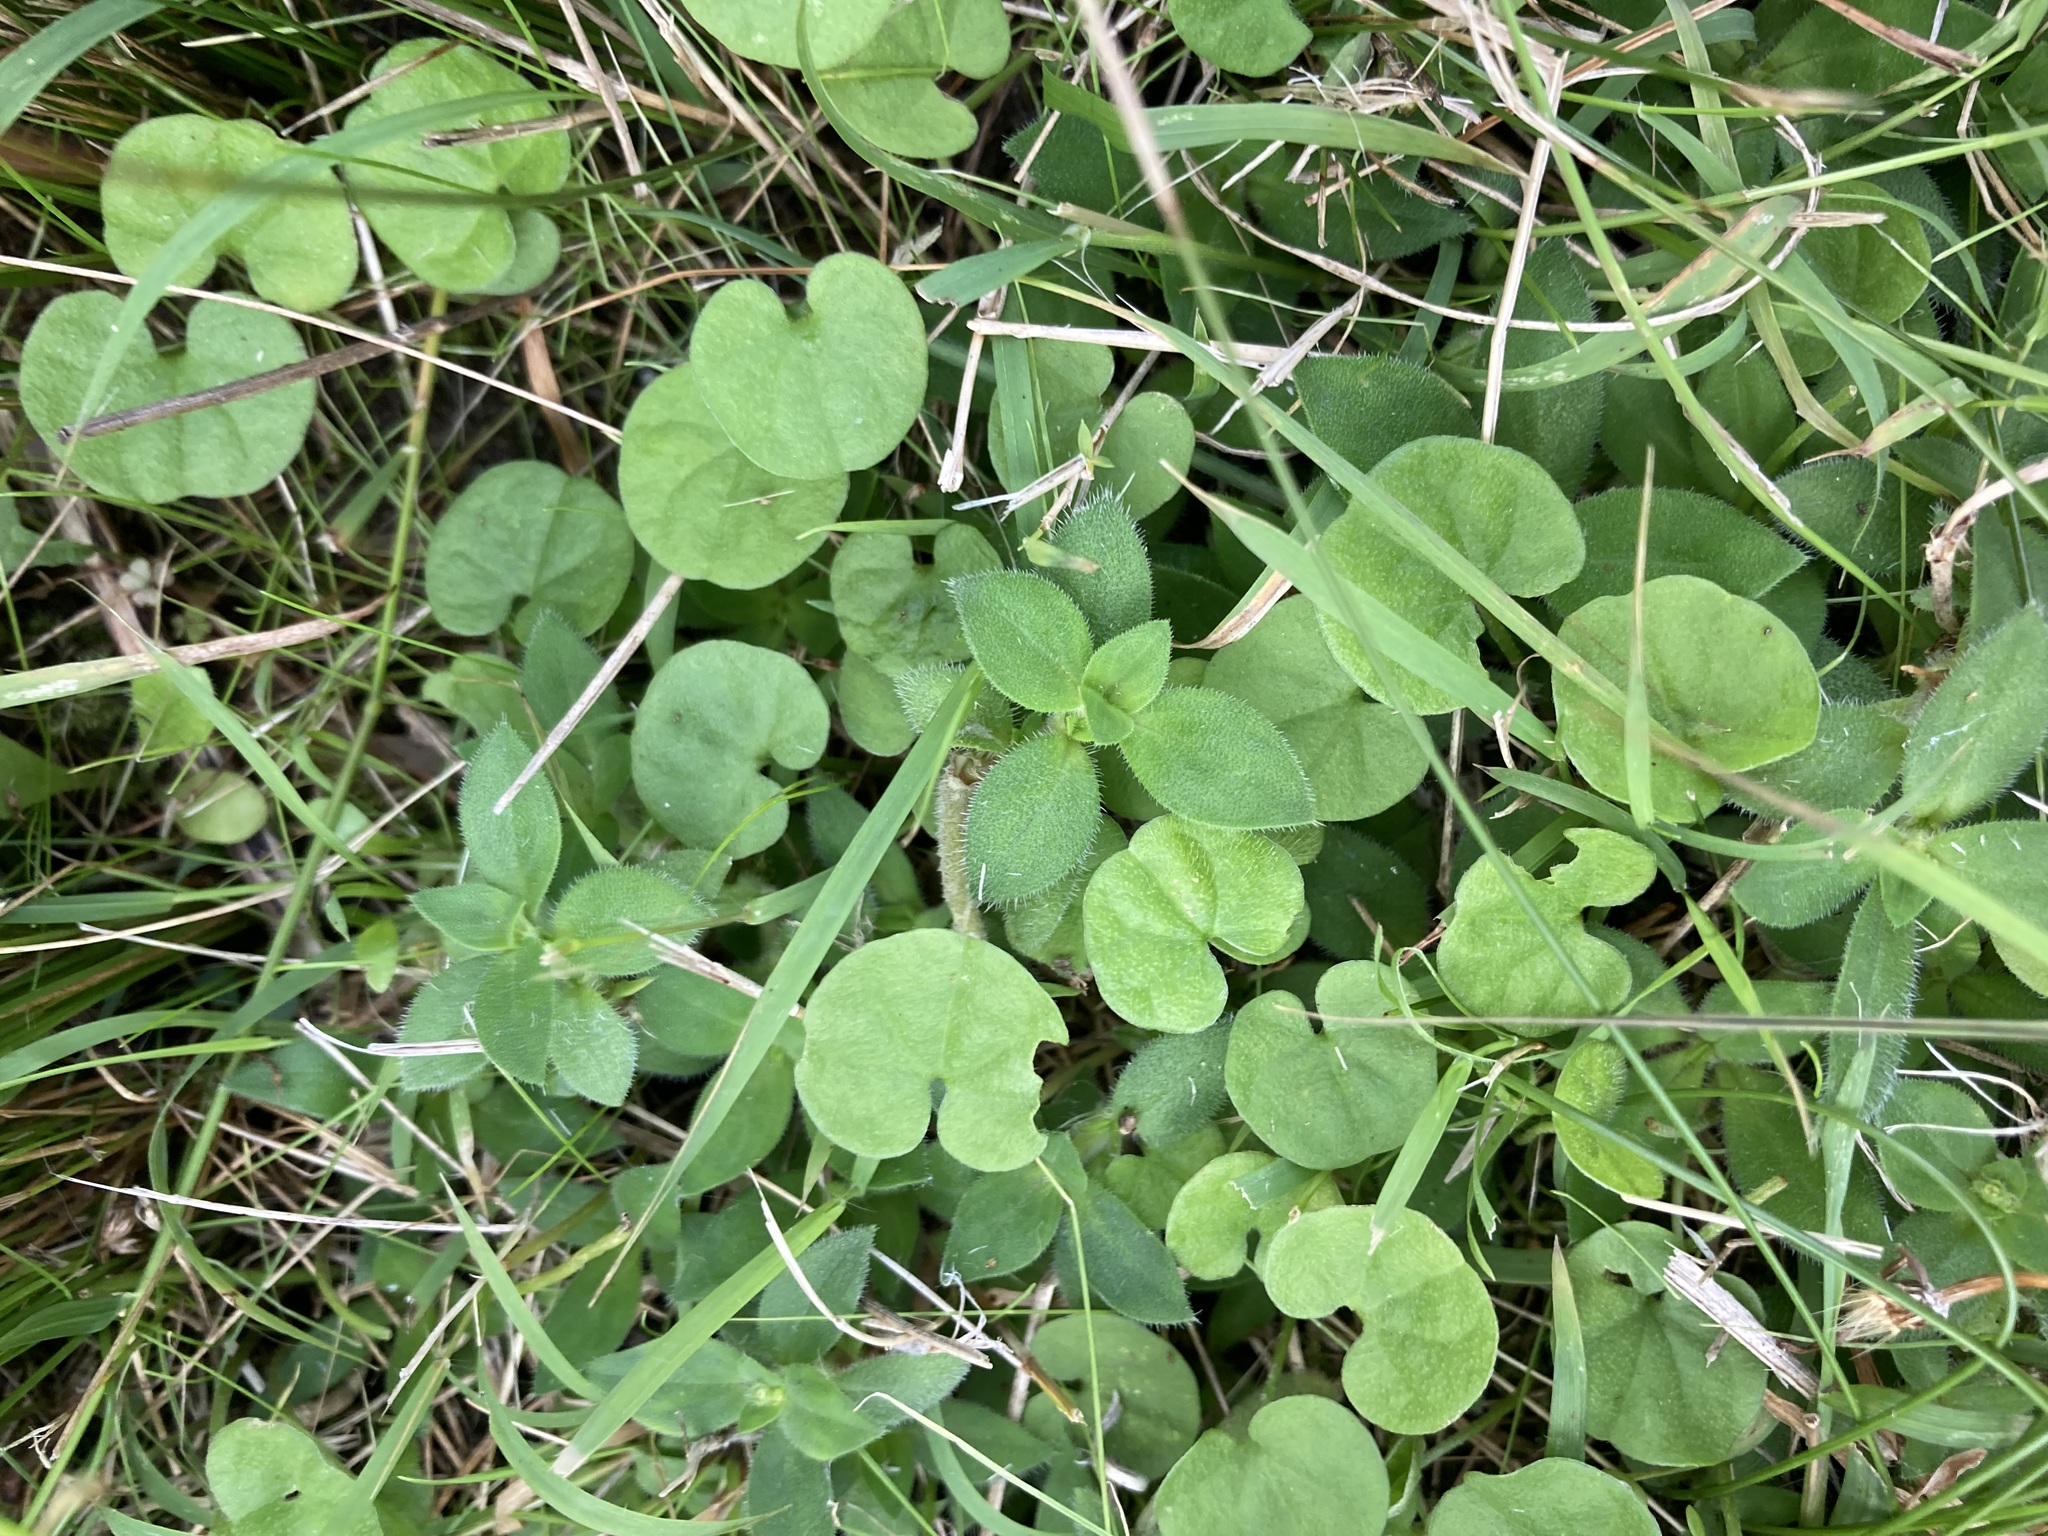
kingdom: Plantae
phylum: Tracheophyta
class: Magnoliopsida
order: Solanales
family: Convolvulaceae
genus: Dichondra
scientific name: Dichondra repens
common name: Kidneyweed
